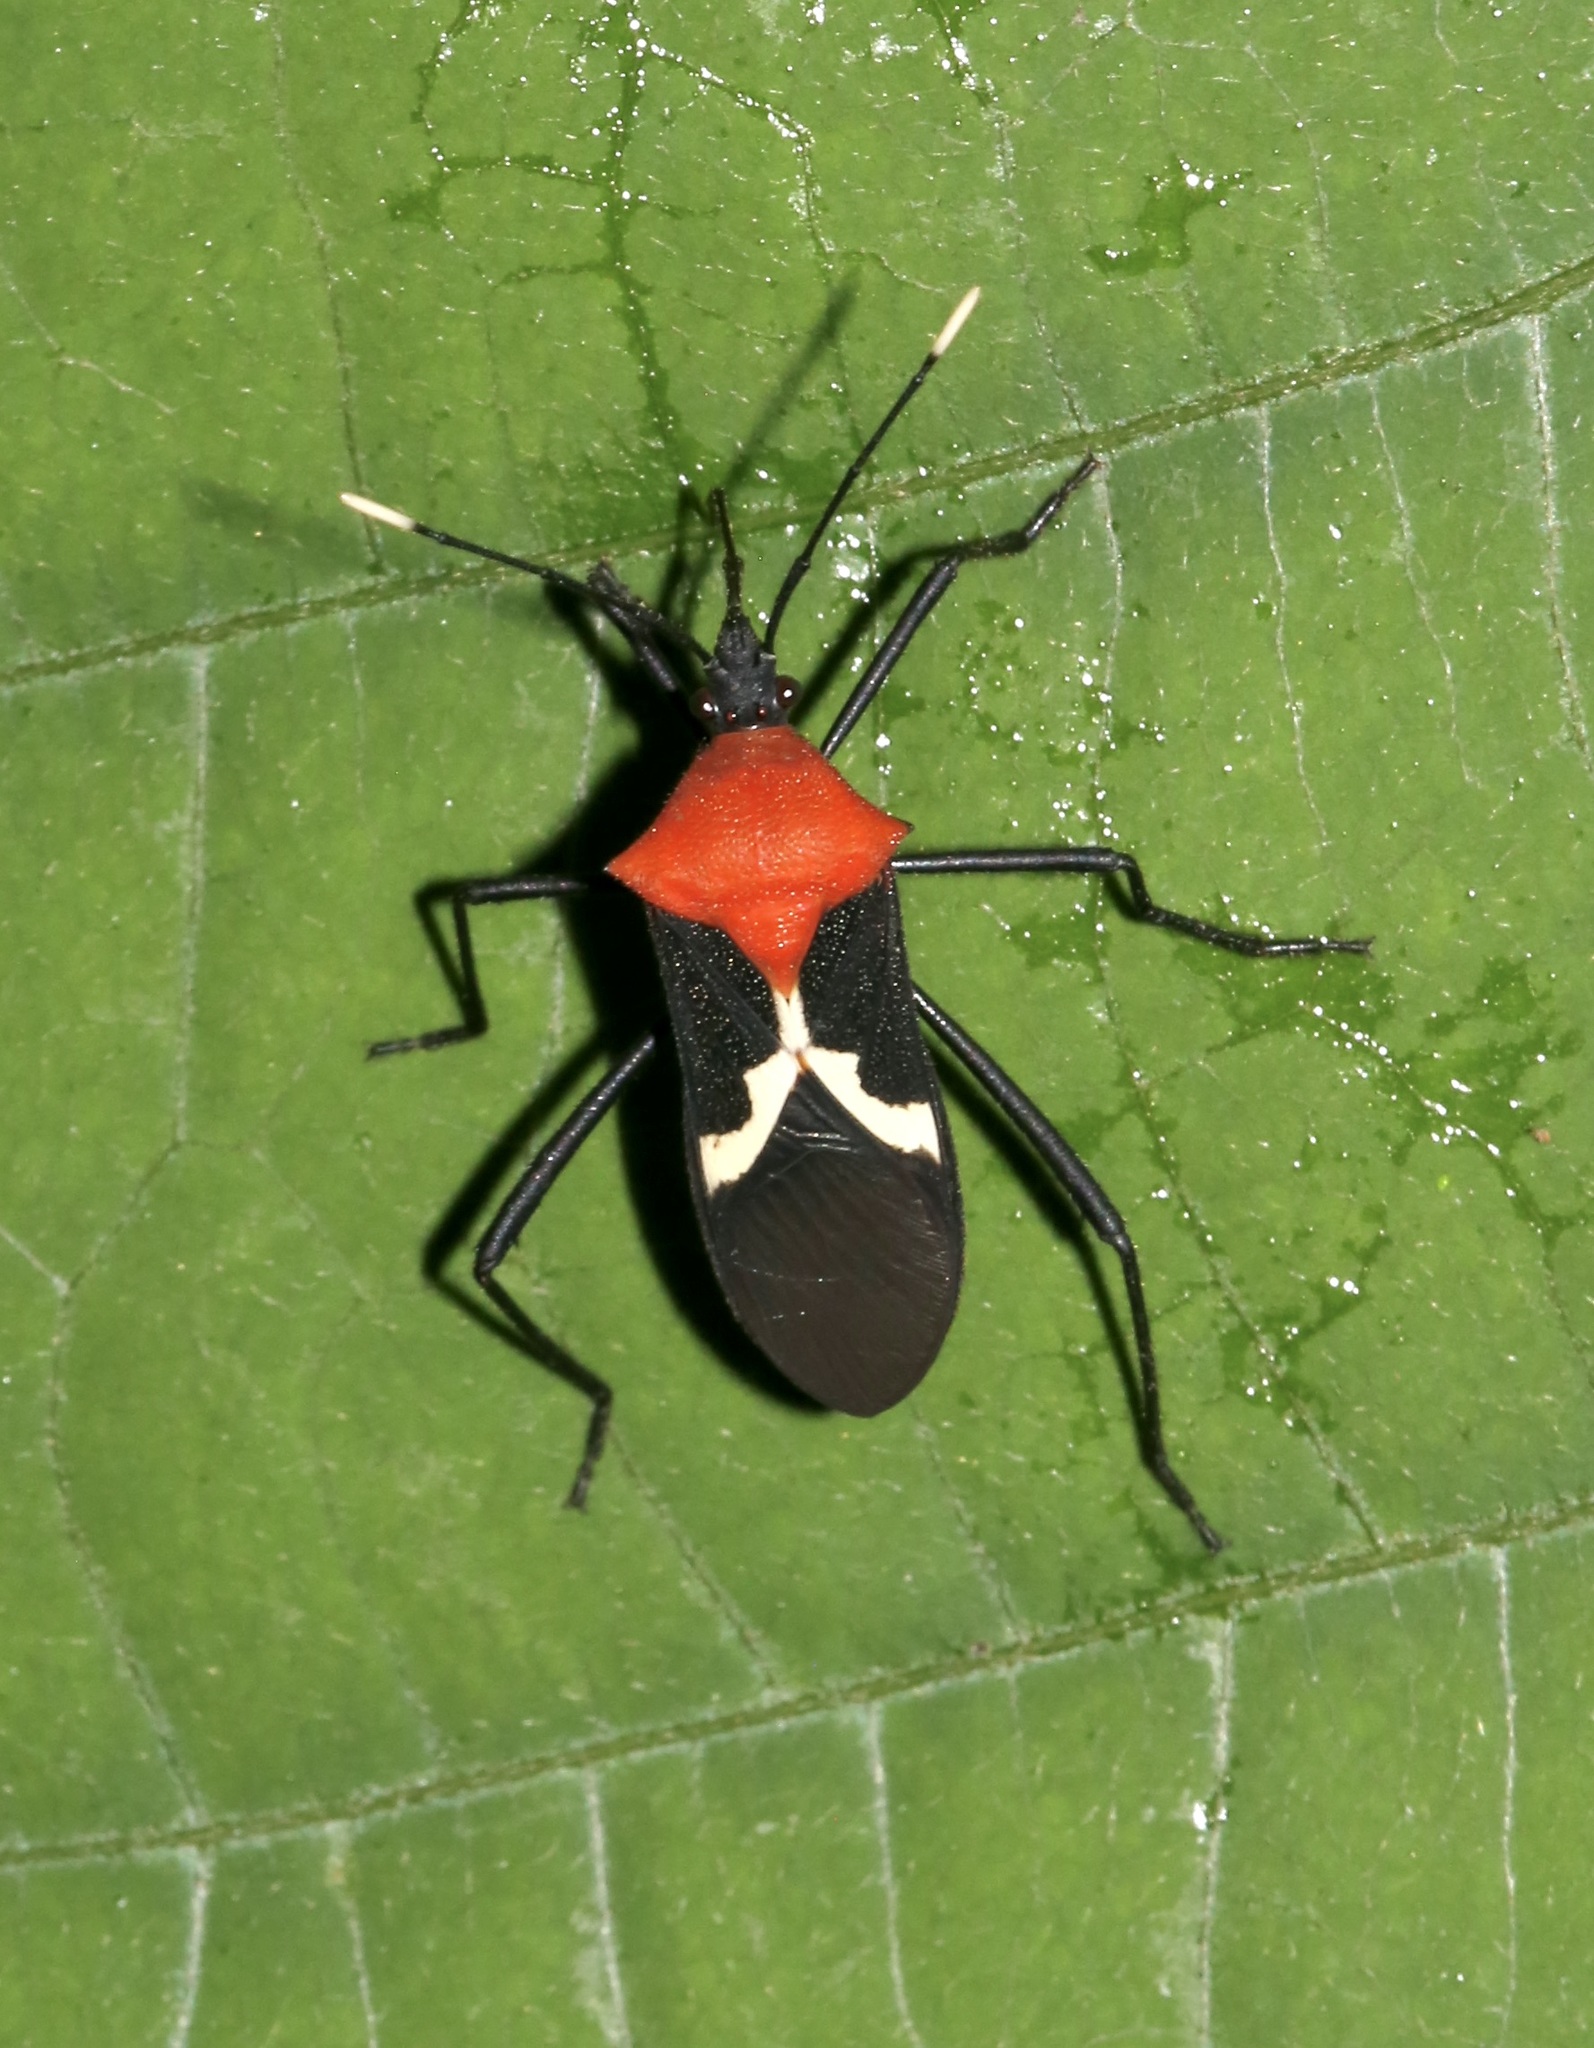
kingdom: Animalia
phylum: Arthropoda
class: Insecta
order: Hemiptera
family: Coreidae
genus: Leptoscelis
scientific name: Leptoscelis militaris
